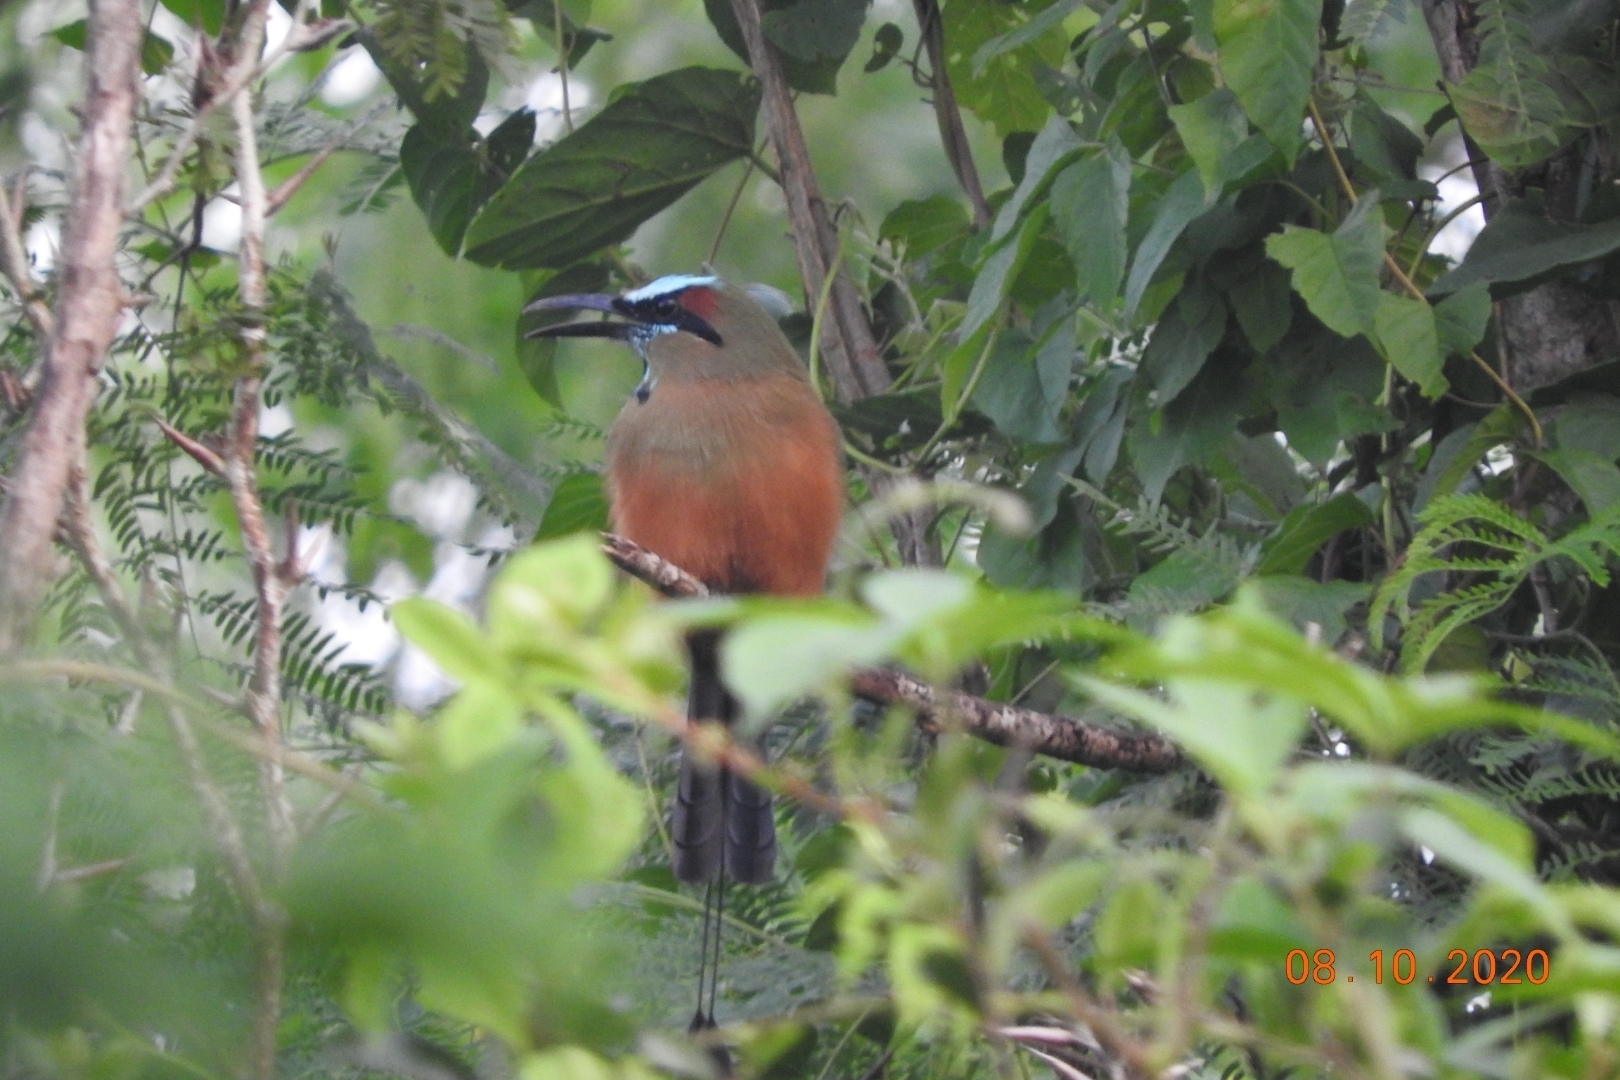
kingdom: Animalia
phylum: Chordata
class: Aves
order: Coraciiformes
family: Momotidae
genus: Eumomota
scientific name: Eumomota superciliosa
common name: Turquoise-browed motmot
